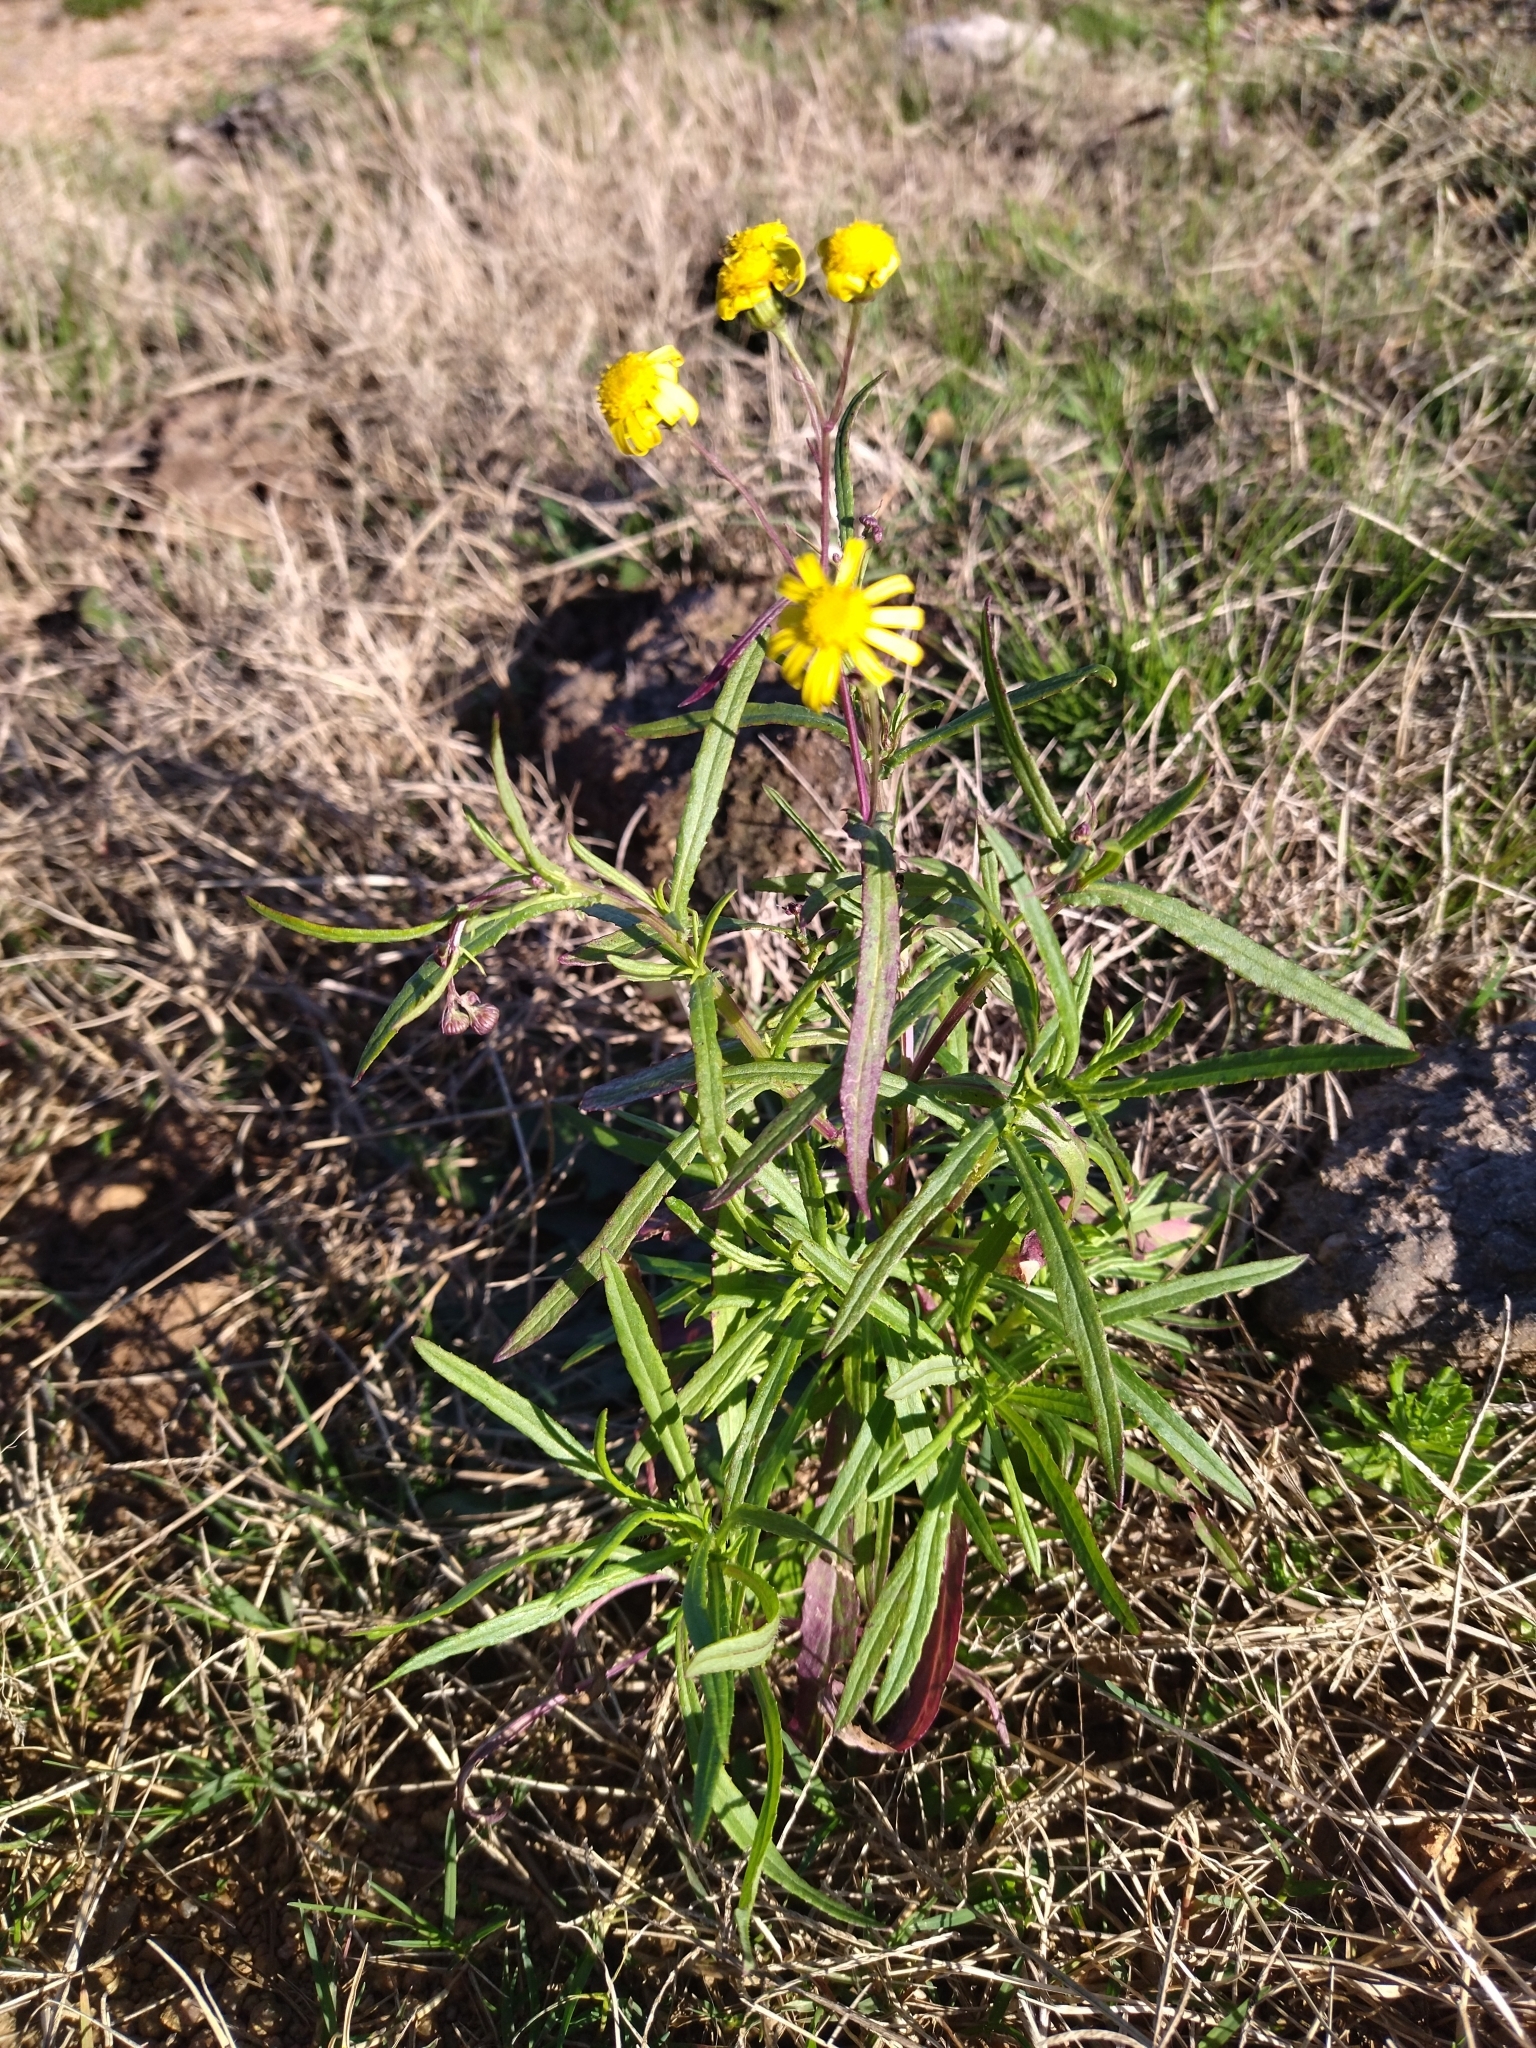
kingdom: Plantae
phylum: Tracheophyta
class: Magnoliopsida
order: Asterales
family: Asteraceae
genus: Senecio
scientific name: Senecio madagascariensis
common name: Madagascar ragwort
